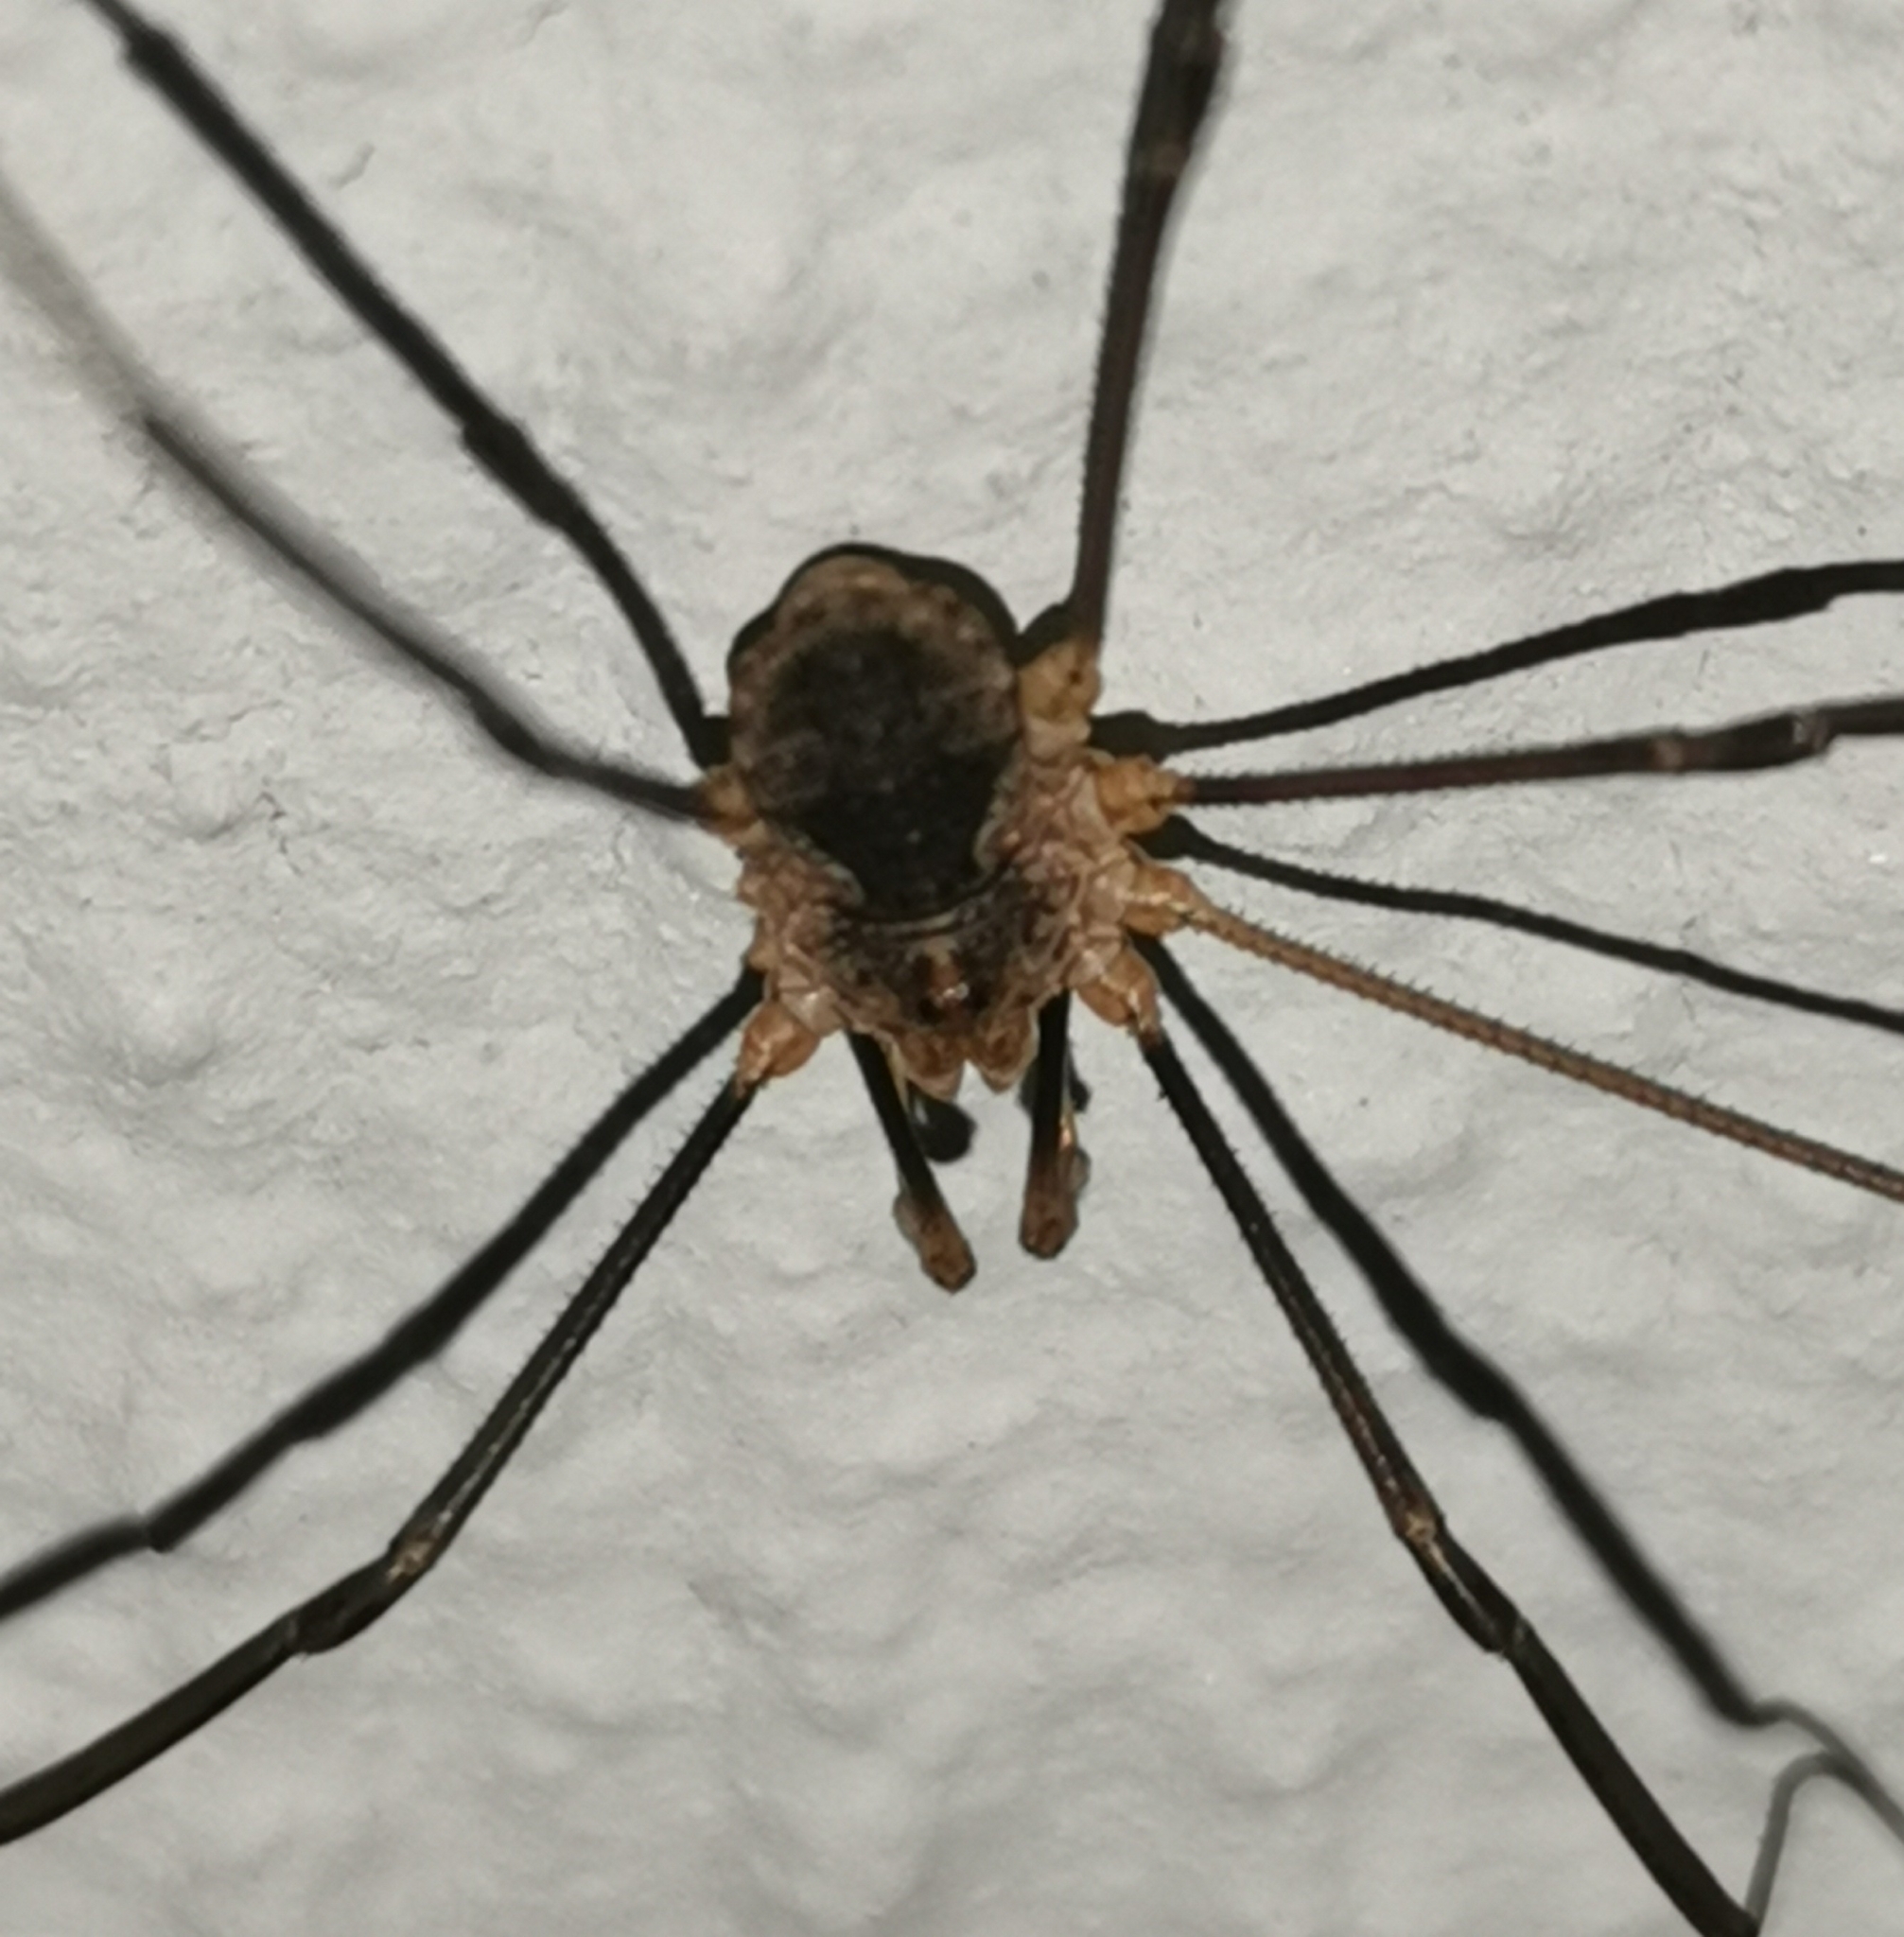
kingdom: Animalia
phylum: Arthropoda
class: Arachnida
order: Opiliones
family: Phalangiidae
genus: Phalangium
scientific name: Phalangium opilio
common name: Daddy longleg
